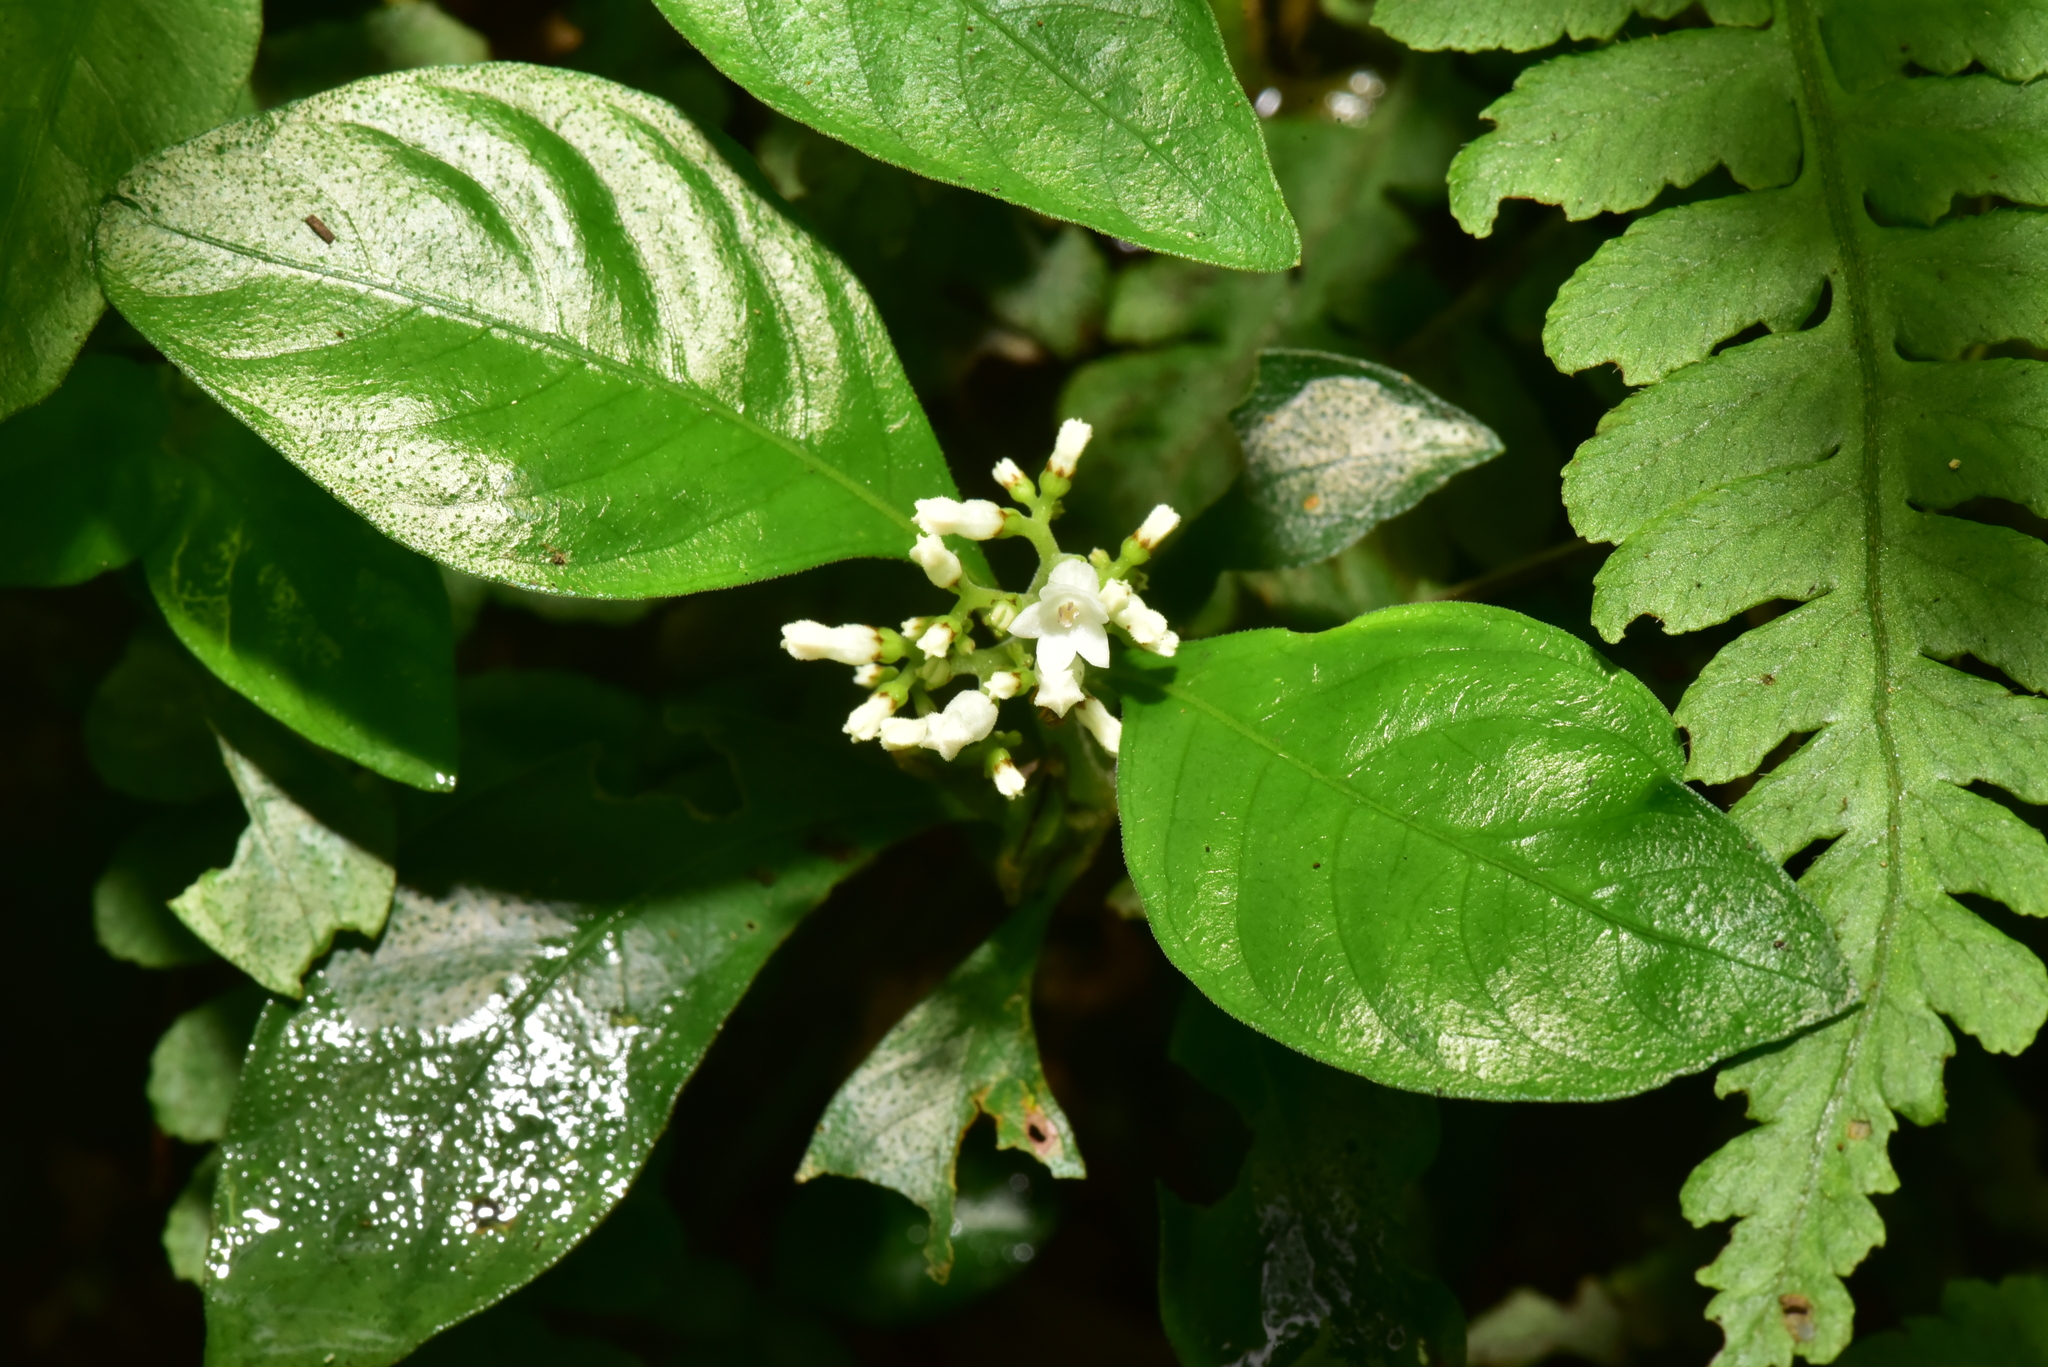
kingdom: Plantae
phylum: Tracheophyta
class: Magnoliopsida
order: Gentianales
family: Rubiaceae
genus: Ophiorrhiza
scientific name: Ophiorrhiza pumila
